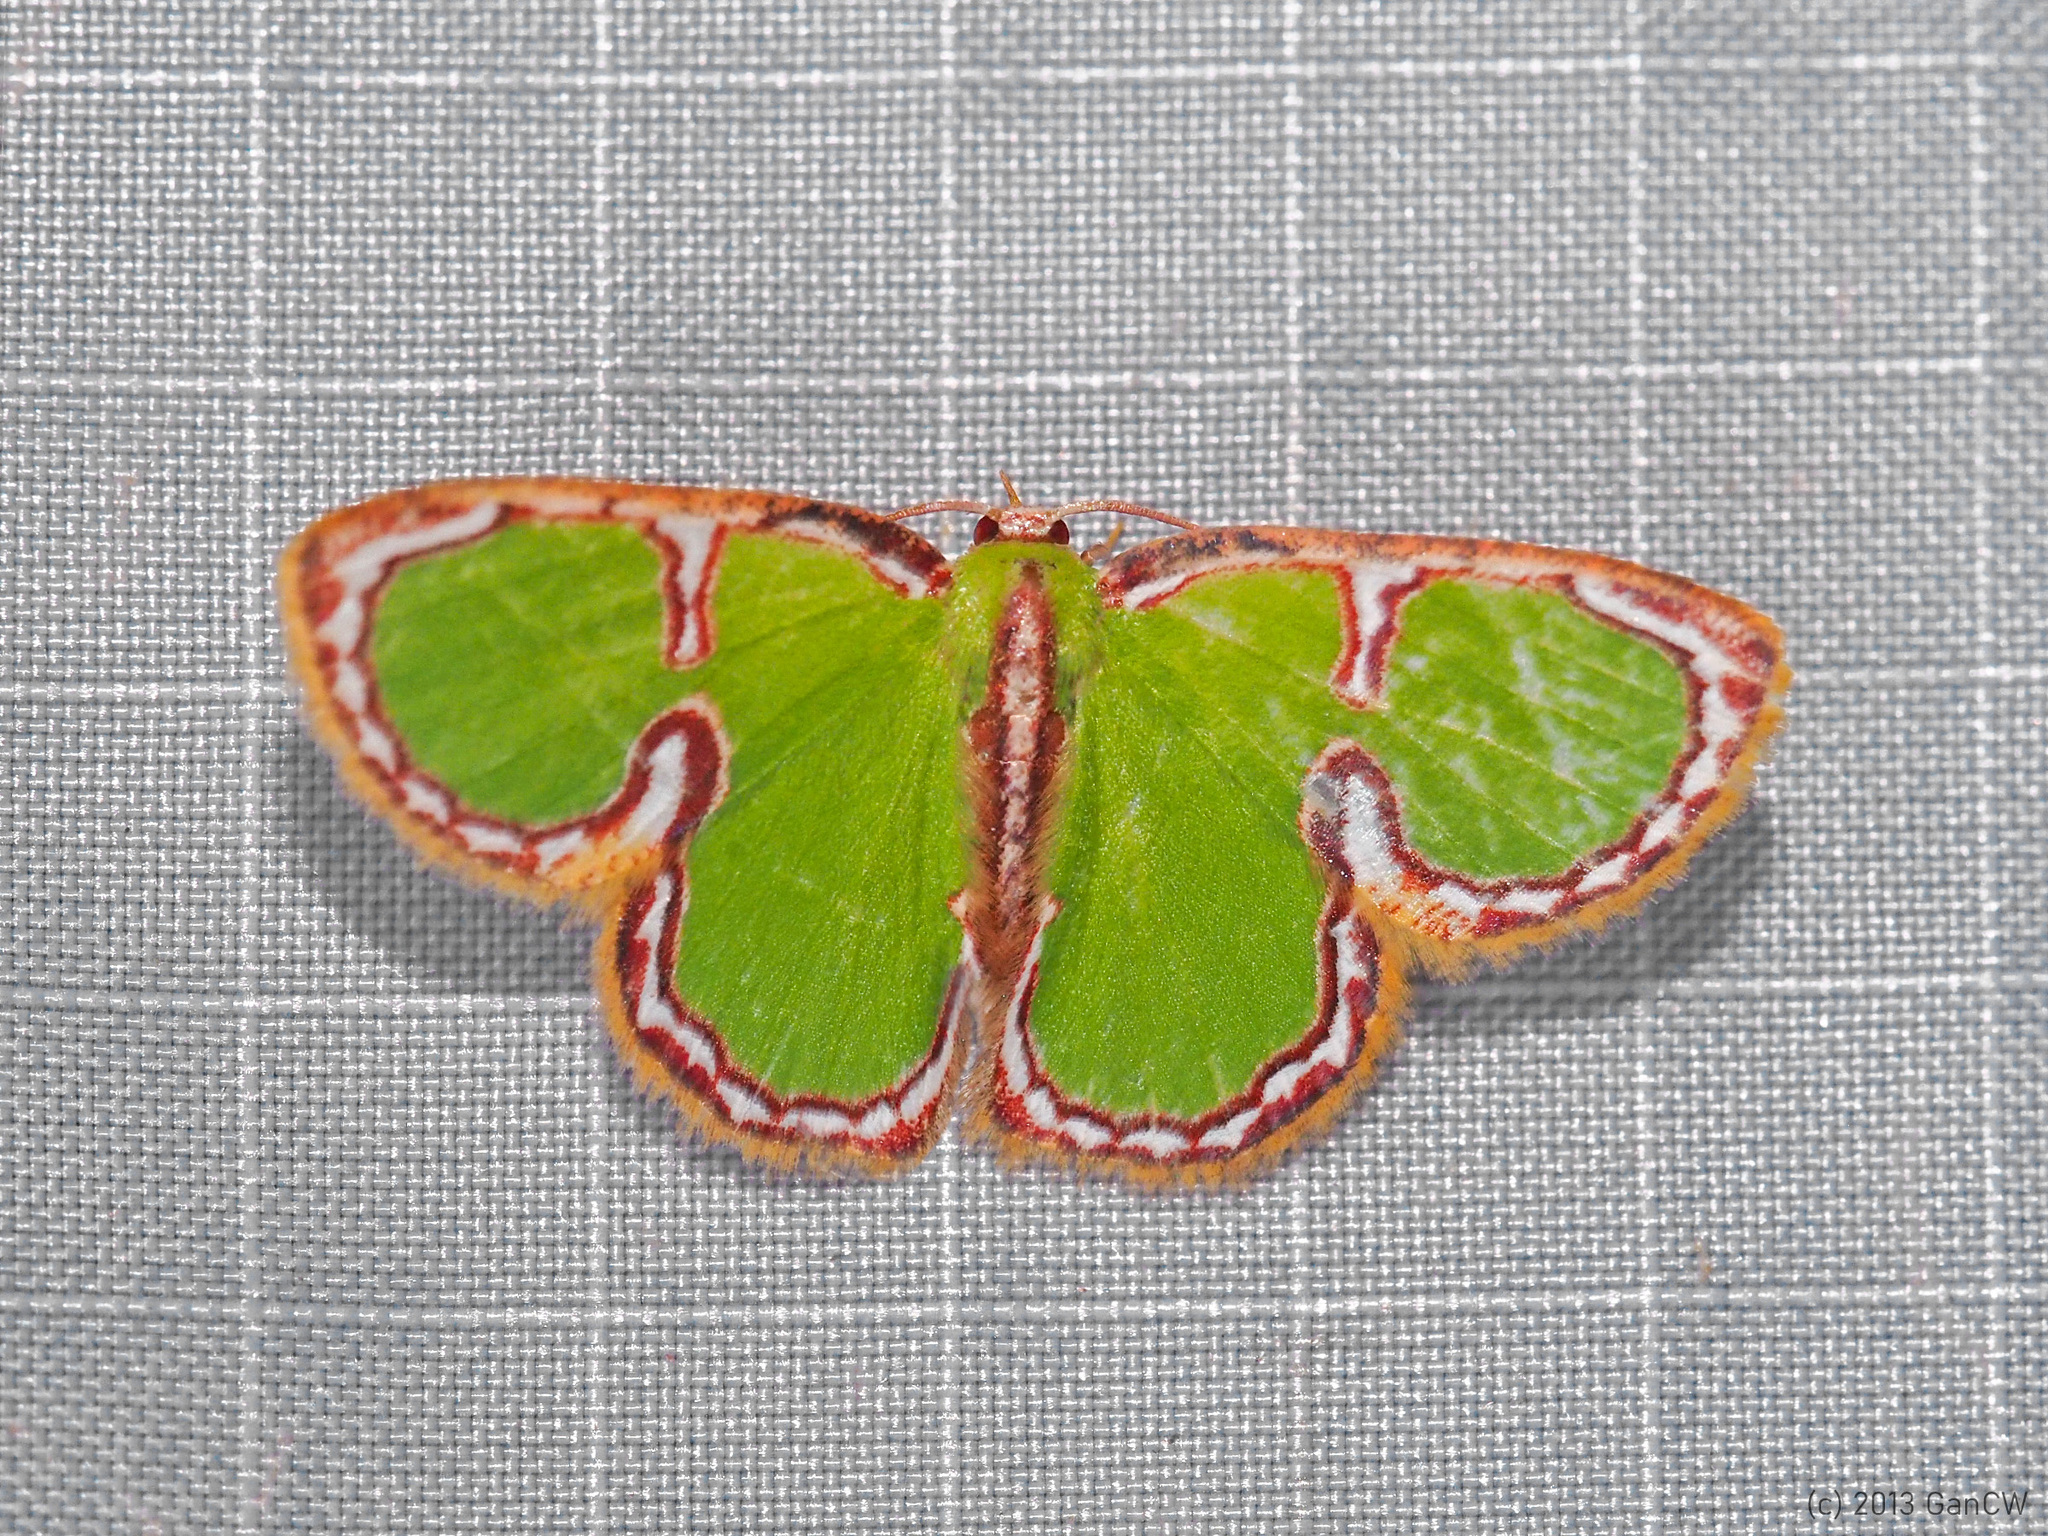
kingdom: Animalia
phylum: Arthropoda
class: Insecta
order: Lepidoptera
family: Geometridae
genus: Comostola
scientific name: Comostola cedilla
